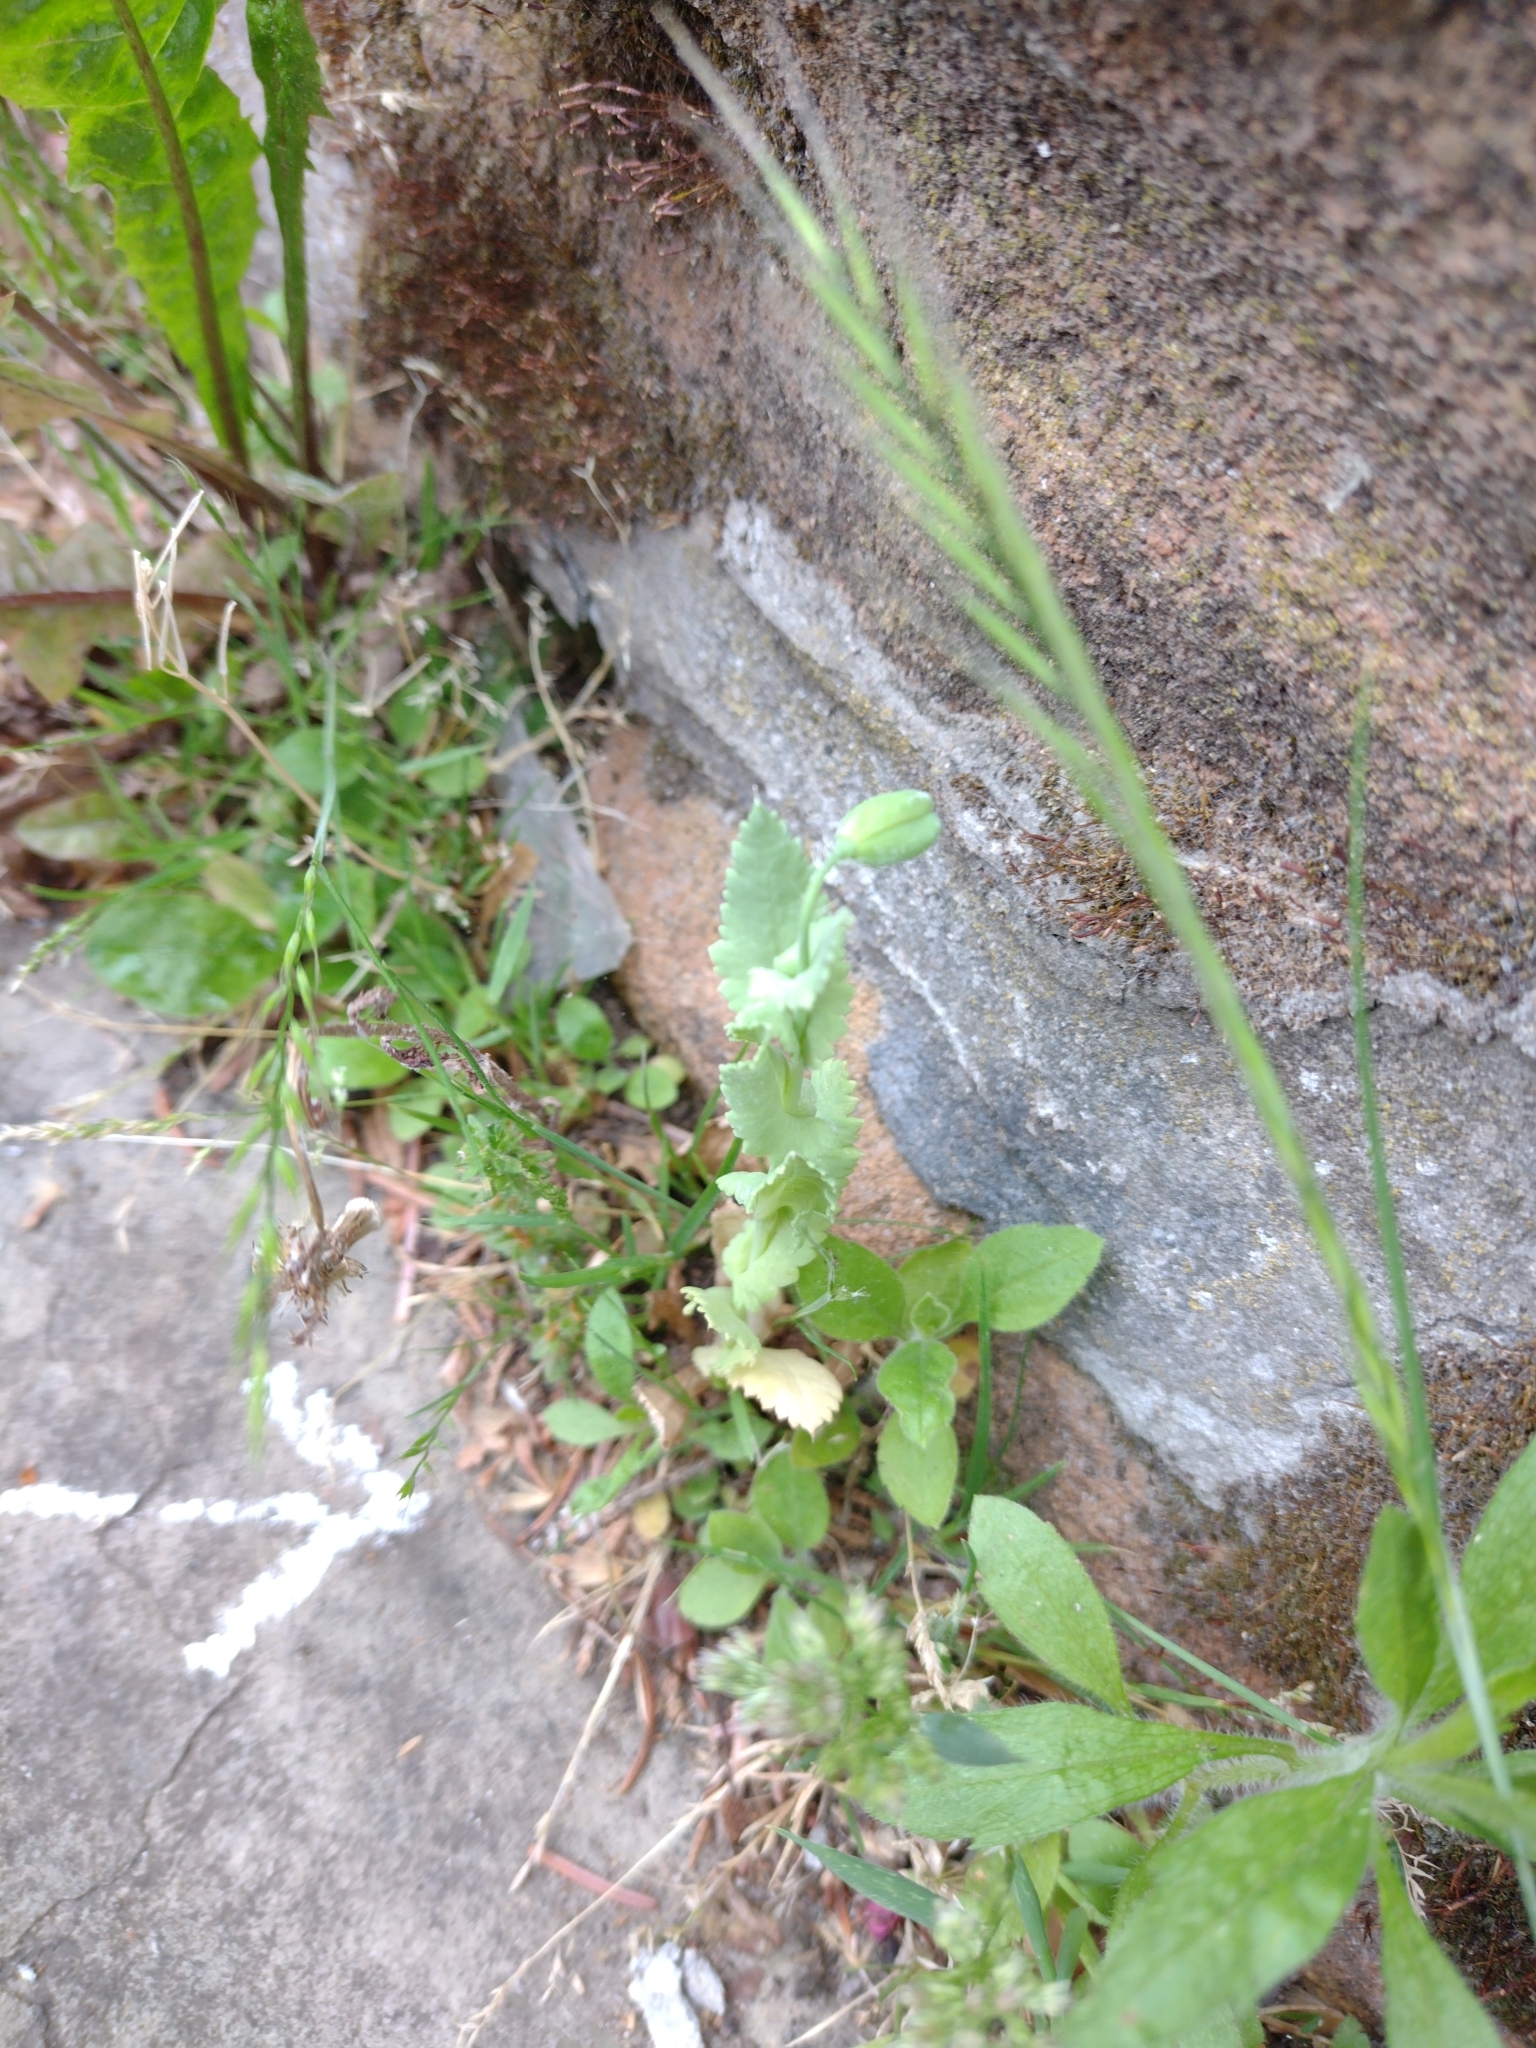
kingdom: Plantae
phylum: Tracheophyta
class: Magnoliopsida
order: Ranunculales
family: Papaveraceae
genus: Papaver
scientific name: Papaver somniferum
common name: Opium poppy
